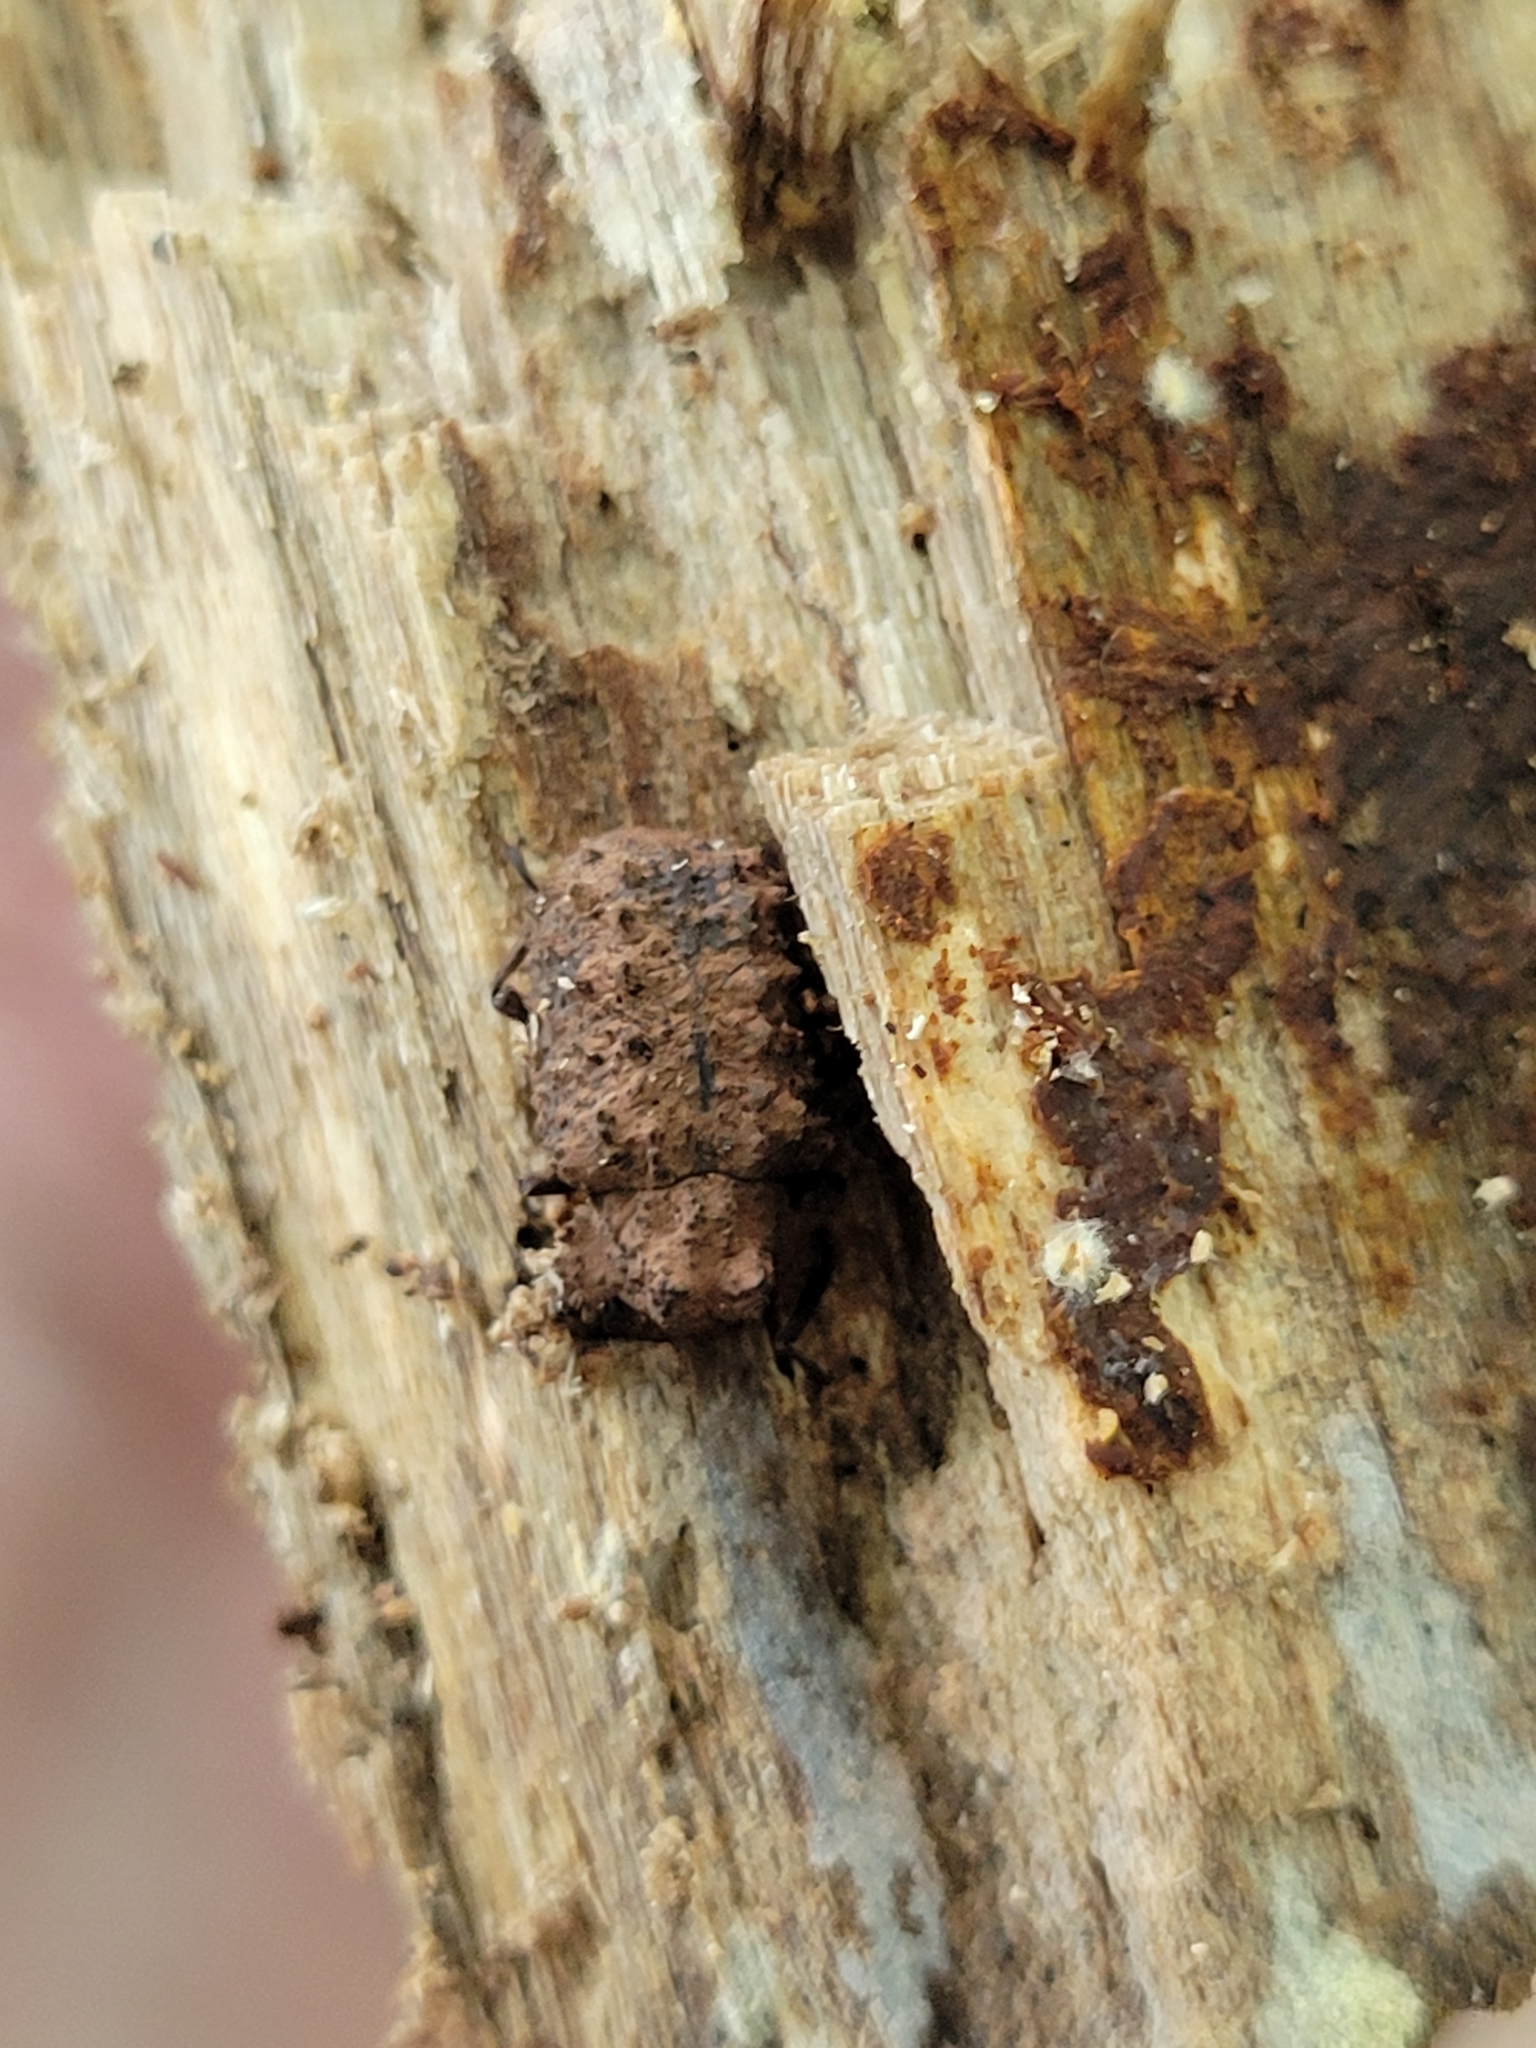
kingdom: Animalia
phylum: Arthropoda
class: Insecta
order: Coleoptera
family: Tenebrionidae
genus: Gnatocerus
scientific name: Gnatocerus cornutus
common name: Broad-horned flour beetle
